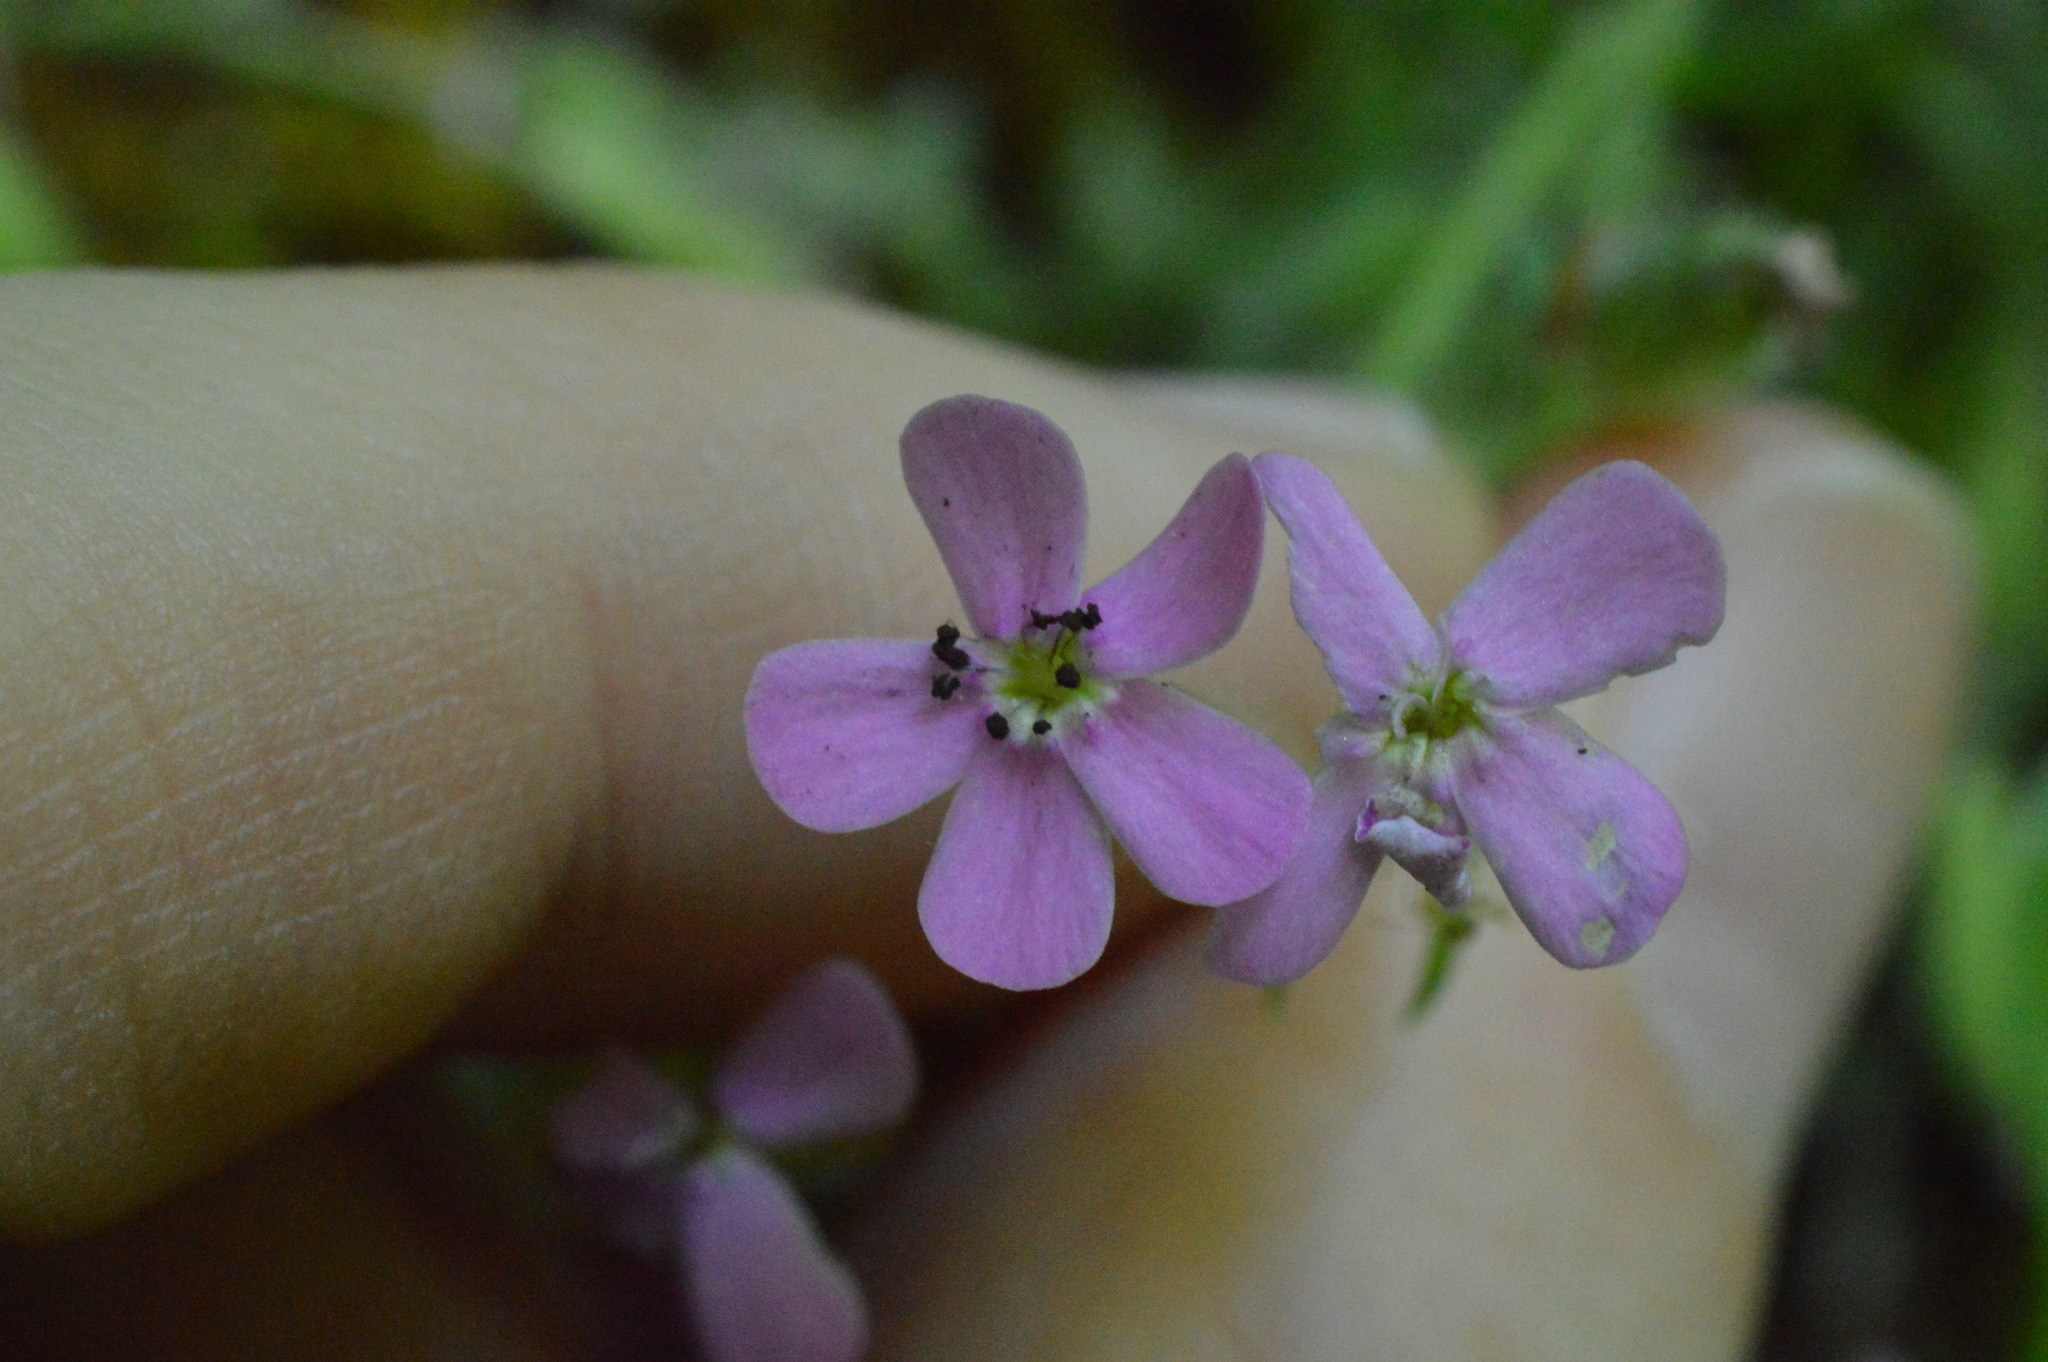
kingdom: Plantae
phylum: Tracheophyta
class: Magnoliopsida
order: Caryophyllales
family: Caryophyllaceae
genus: Saponaria
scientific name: Saponaria ocymoides
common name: Rock soapwort
